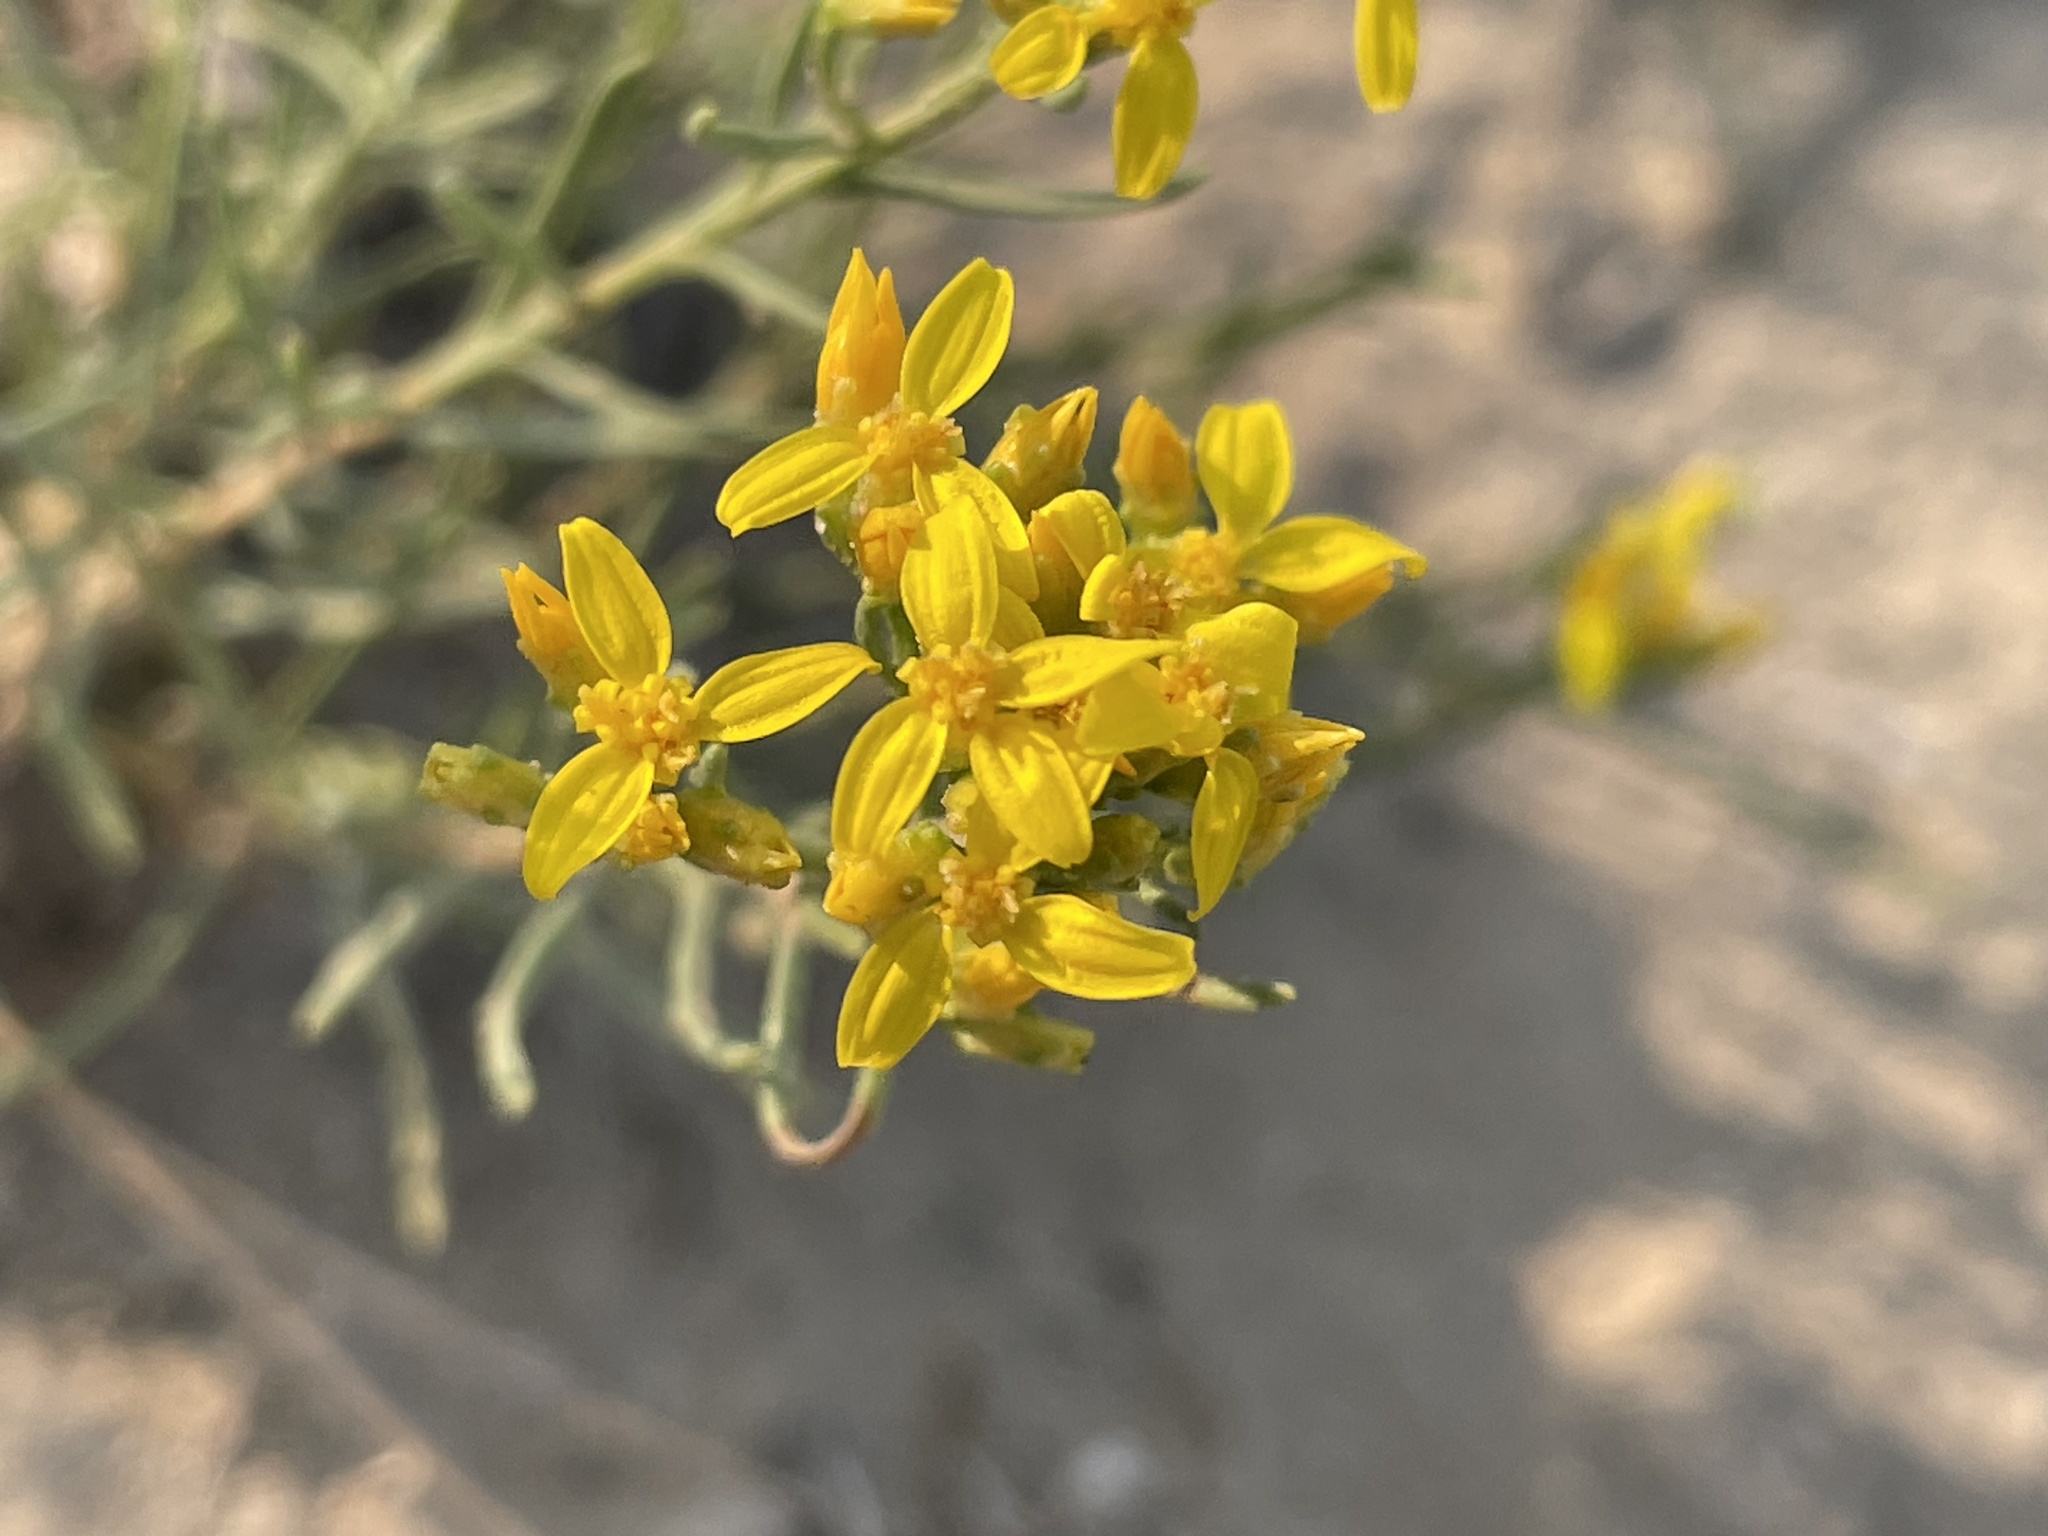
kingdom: Plantae
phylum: Tracheophyta
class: Magnoliopsida
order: Asterales
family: Asteraceae
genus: Gutierrezia
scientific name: Gutierrezia sarothrae
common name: Broom snakeweed
